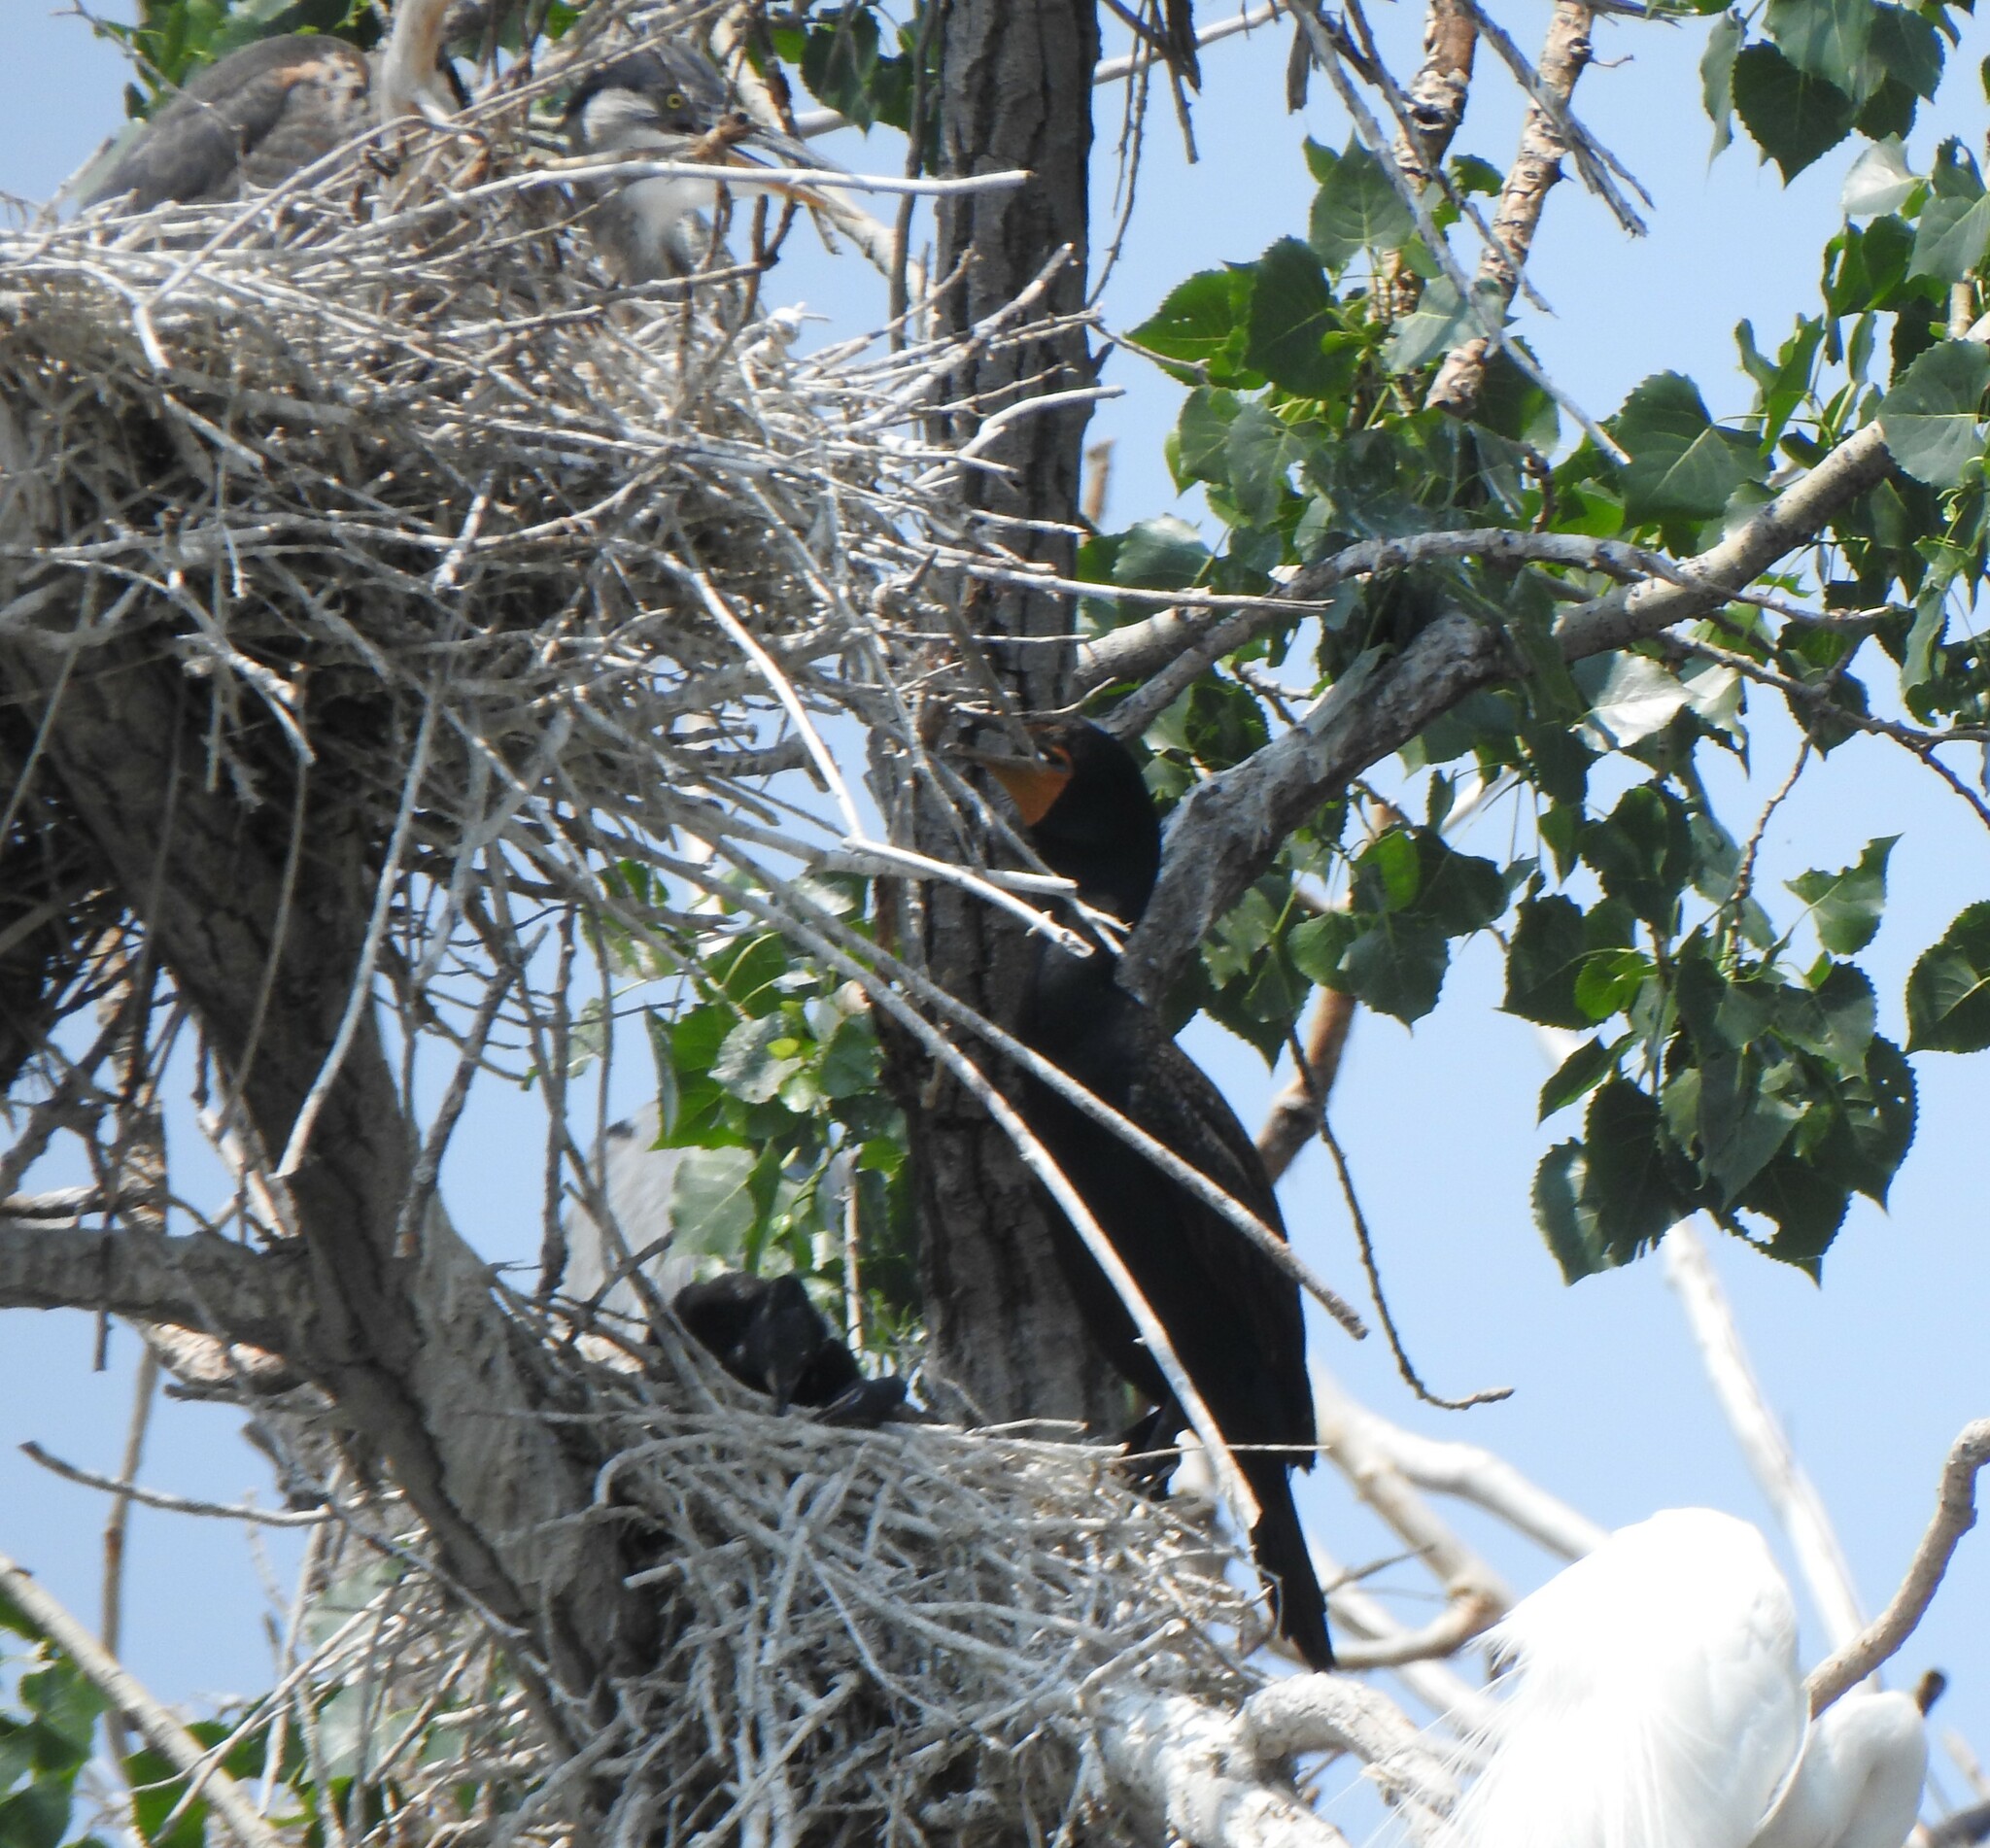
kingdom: Animalia
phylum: Chordata
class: Aves
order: Suliformes
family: Phalacrocoracidae
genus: Phalacrocorax
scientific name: Phalacrocorax auritus
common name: Double-crested cormorant
